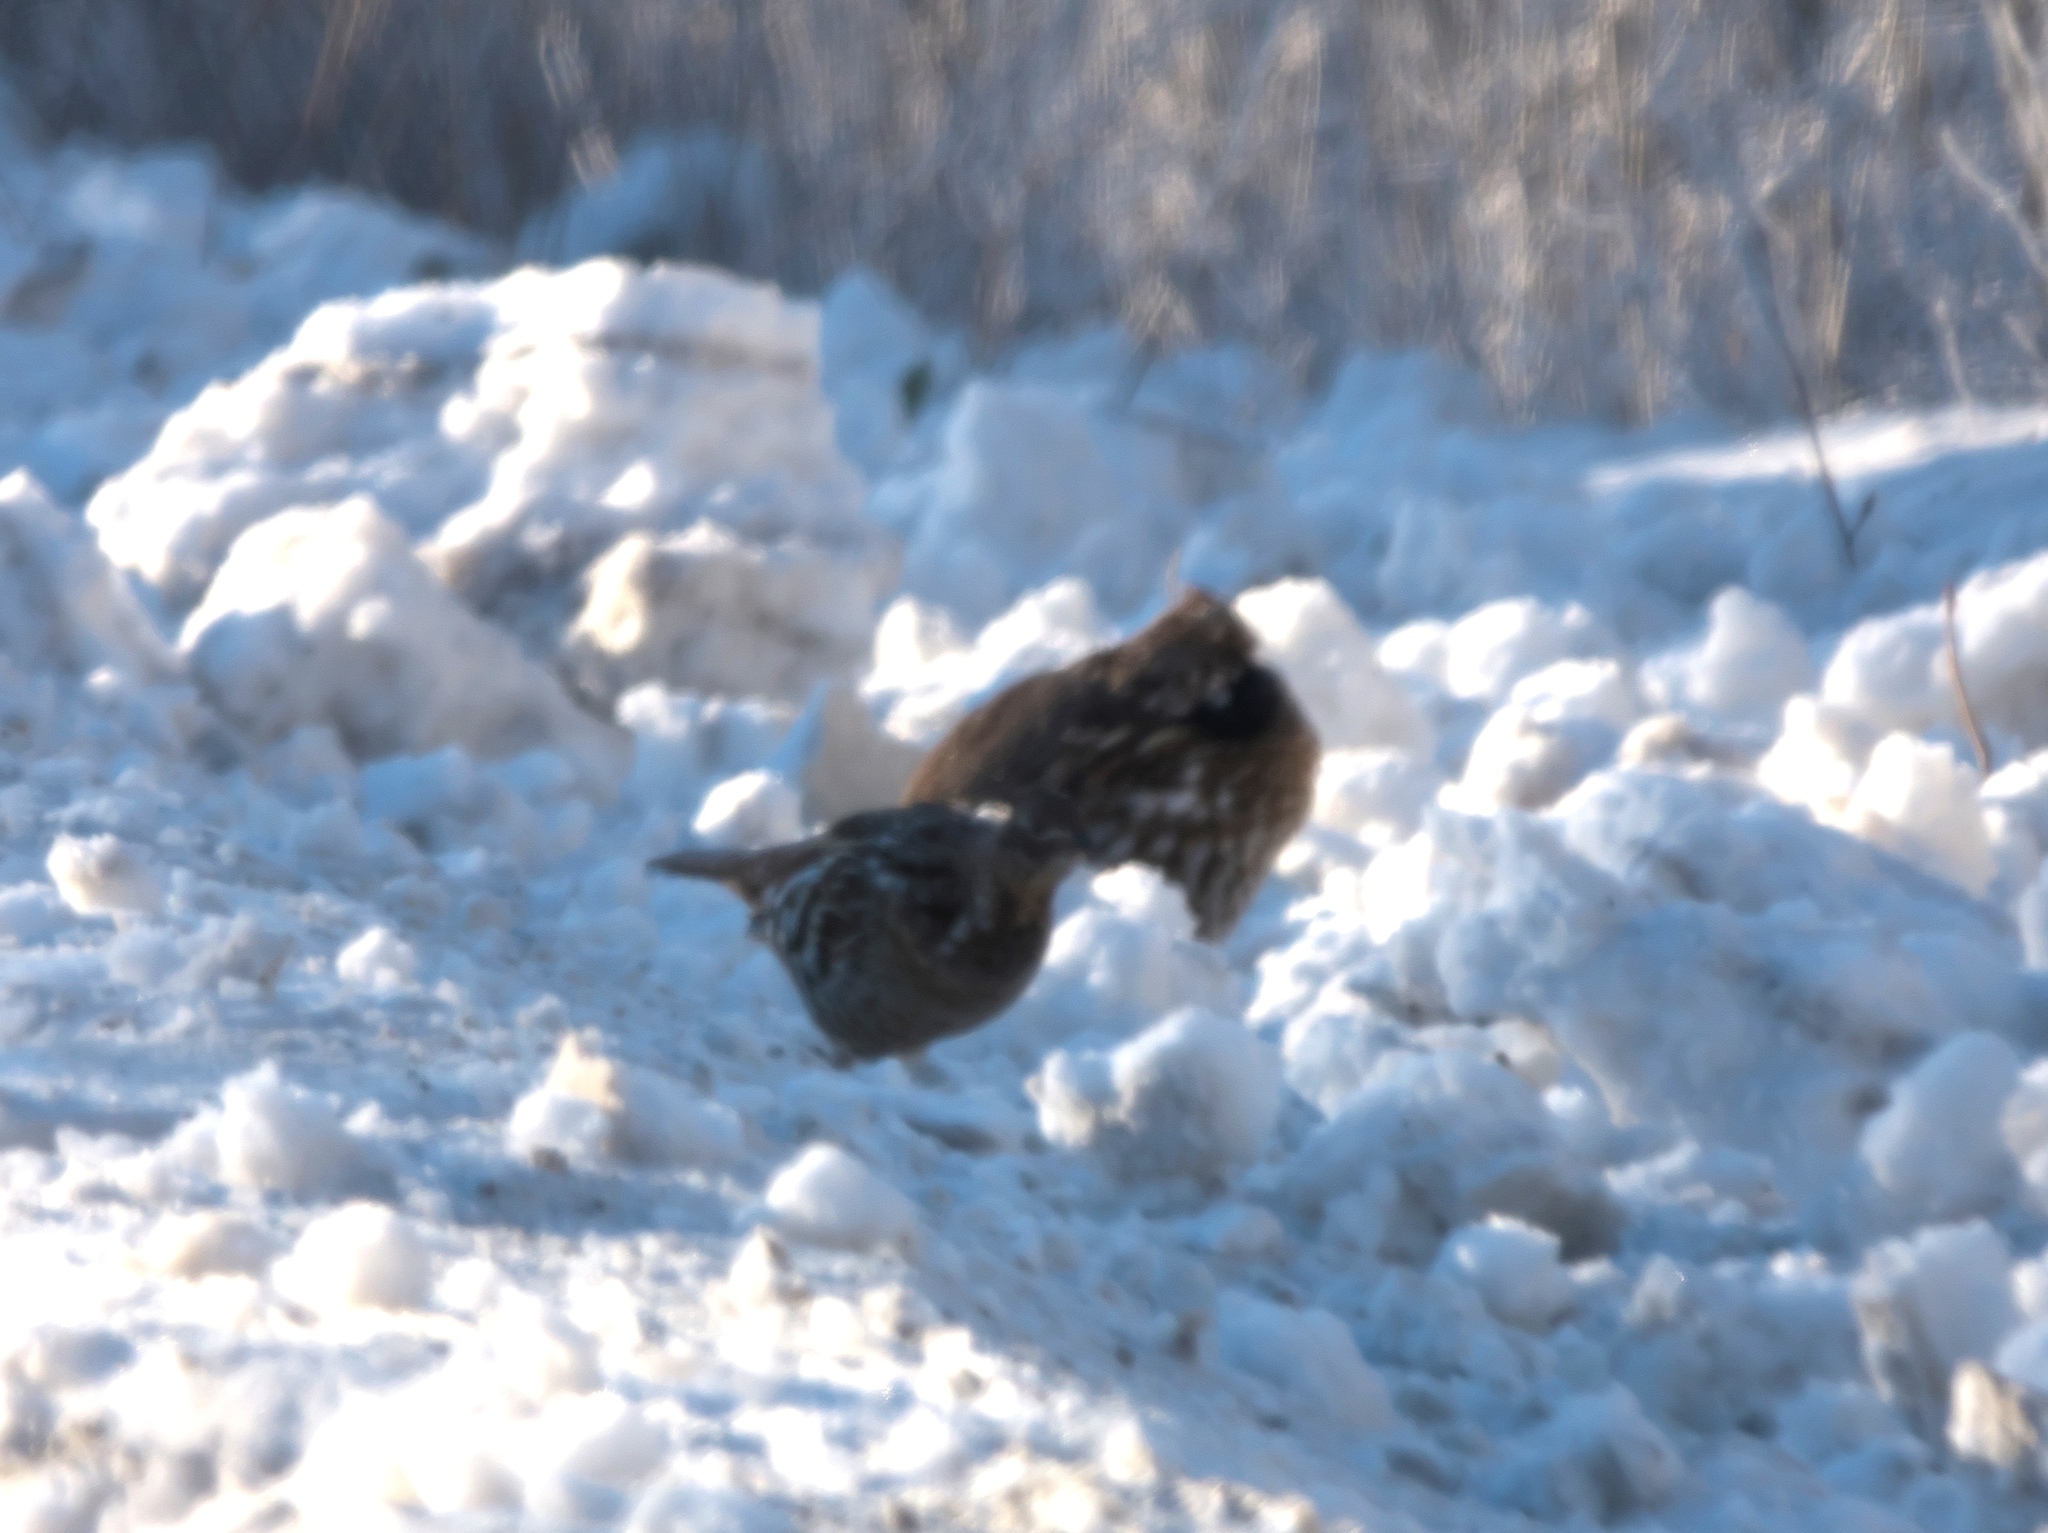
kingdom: Animalia
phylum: Chordata
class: Aves
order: Galliformes
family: Phasianidae
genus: Bonasa
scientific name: Bonasa umbellus
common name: Ruffed grouse
